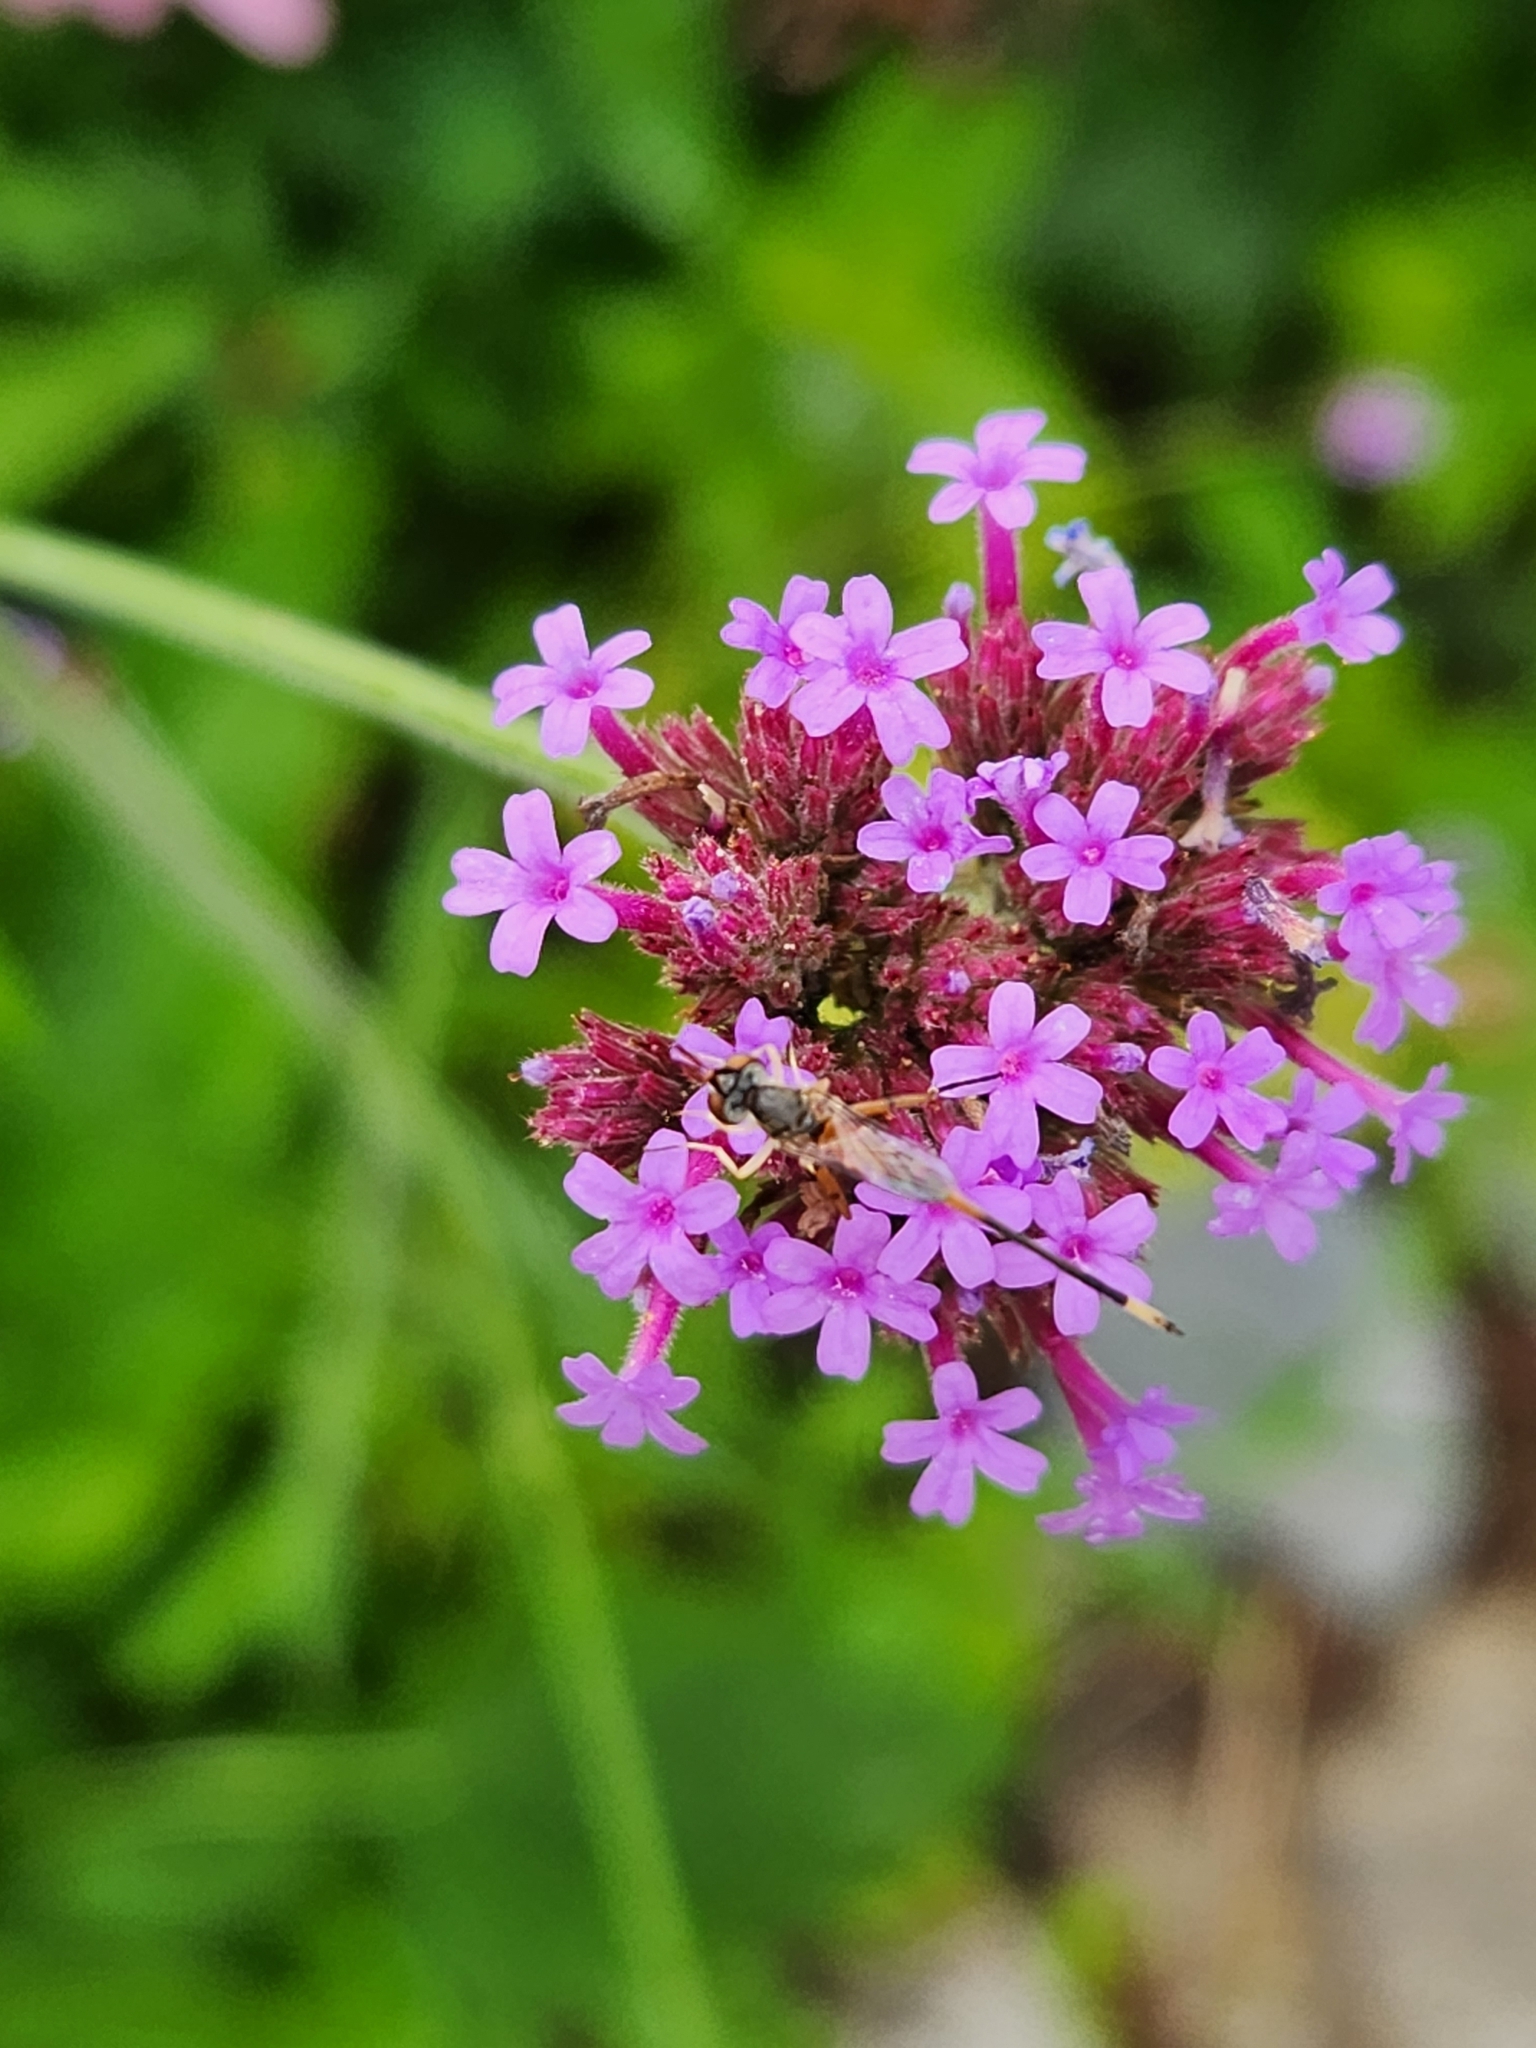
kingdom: Animalia
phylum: Arthropoda
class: Insecta
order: Diptera
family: Conopidae
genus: Stylogaster
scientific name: Stylogaster neglecta
